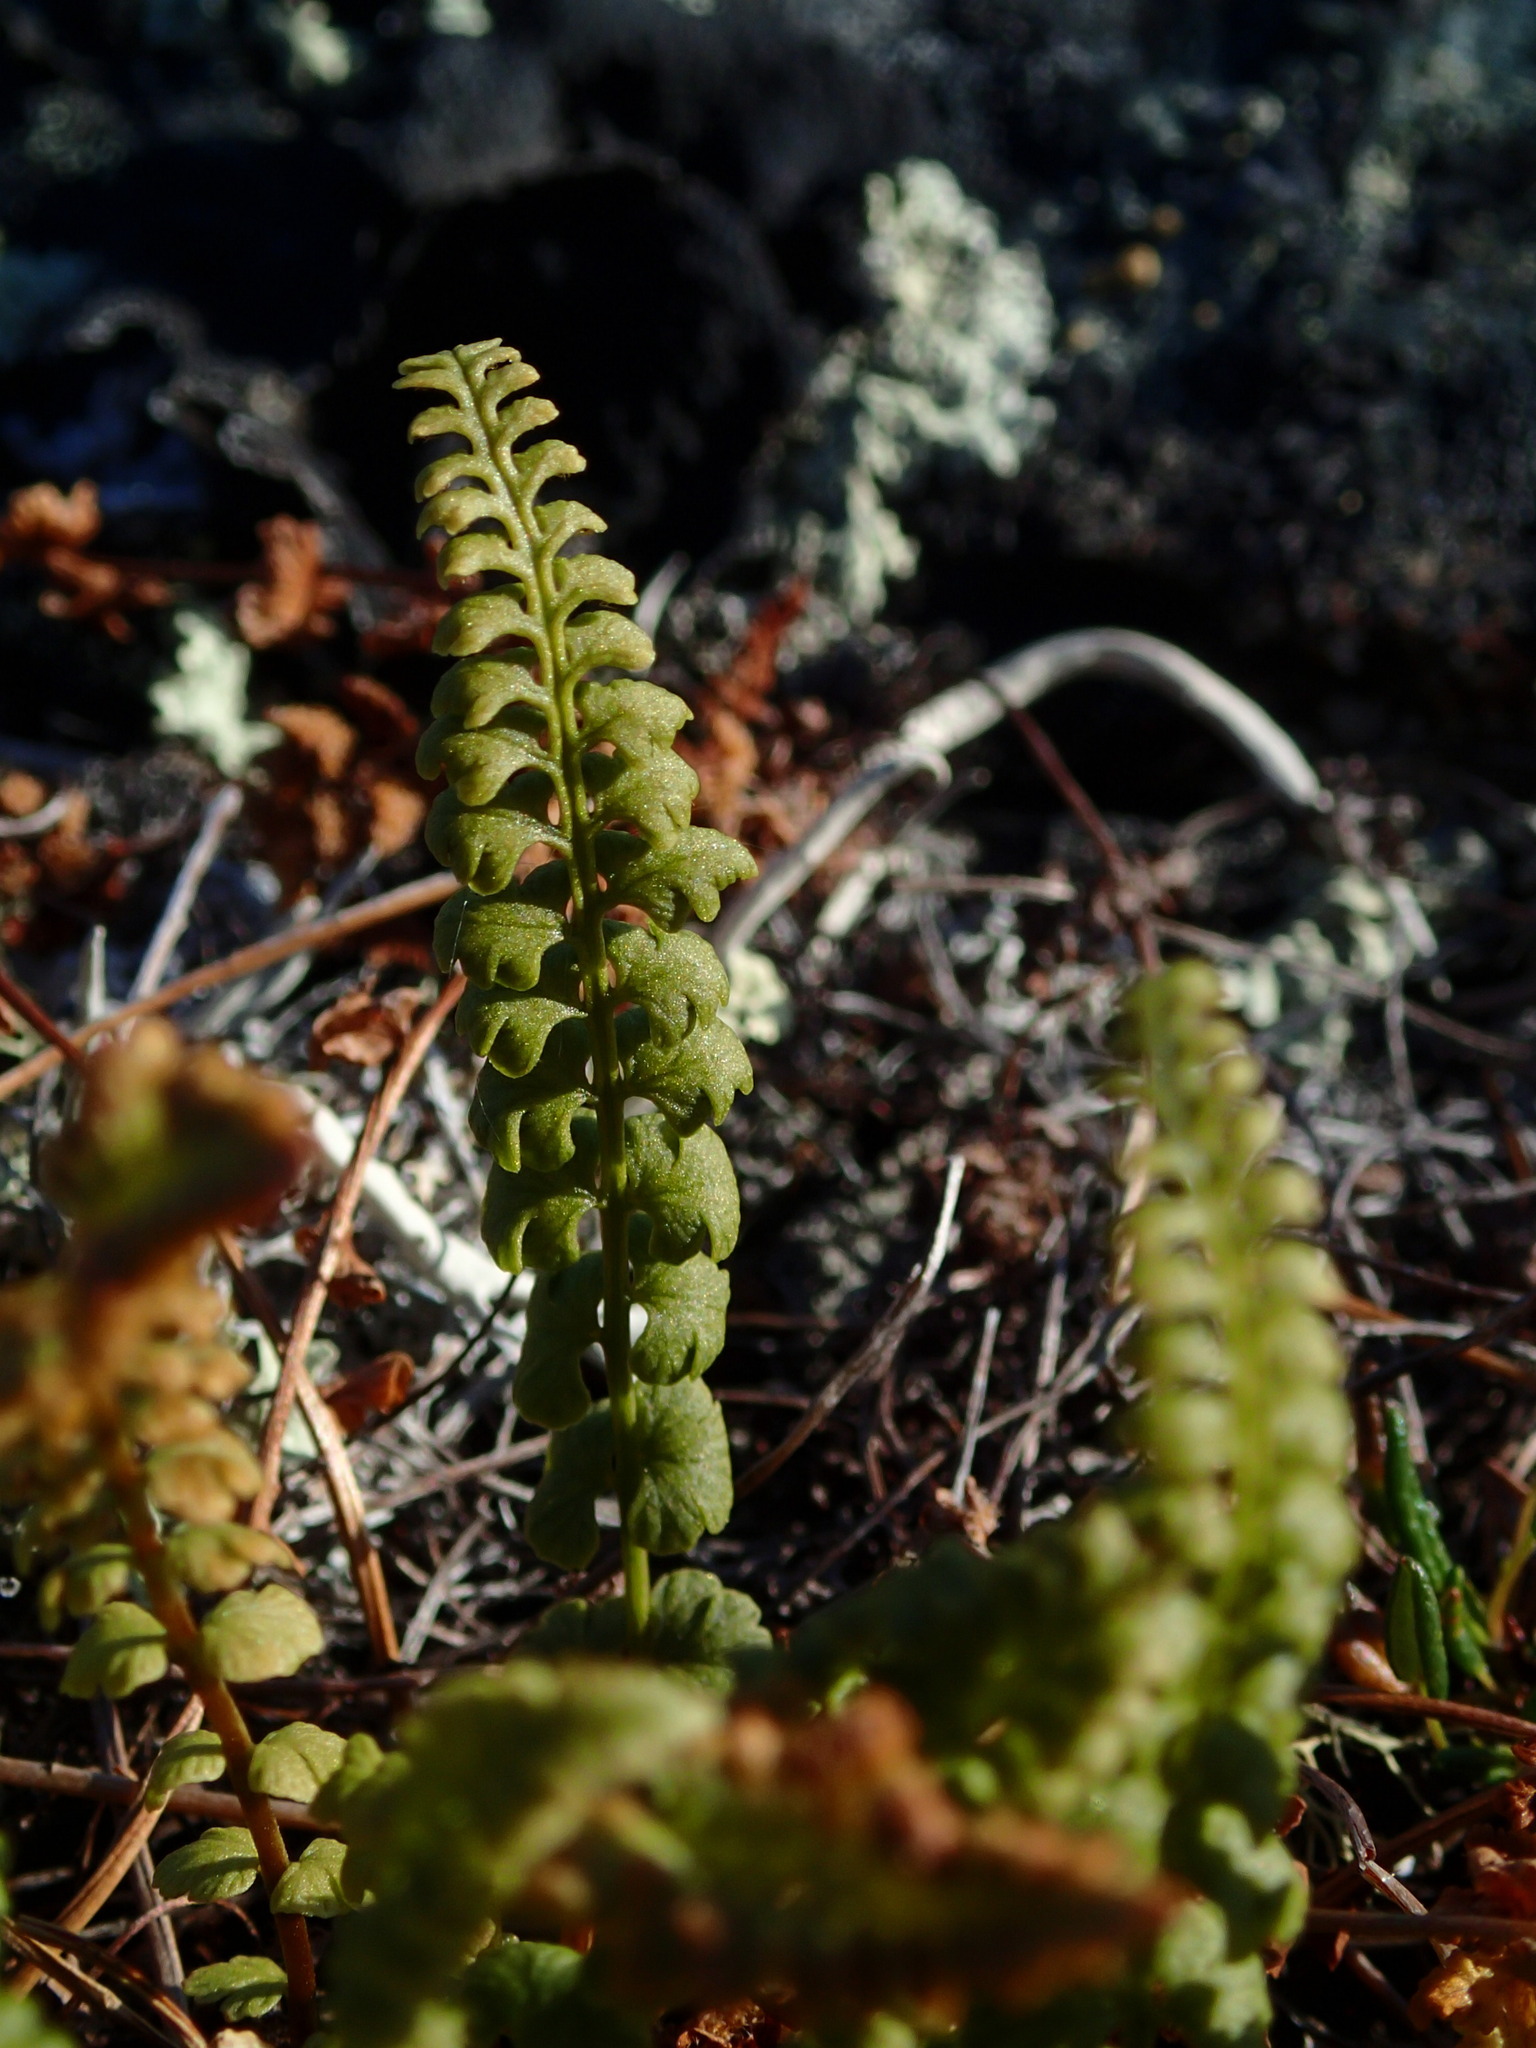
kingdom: Plantae
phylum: Tracheophyta
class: Polypodiopsida
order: Polypodiales
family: Woodsiaceae
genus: Woodsia
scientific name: Woodsia glabella
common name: Smooth woodsia
